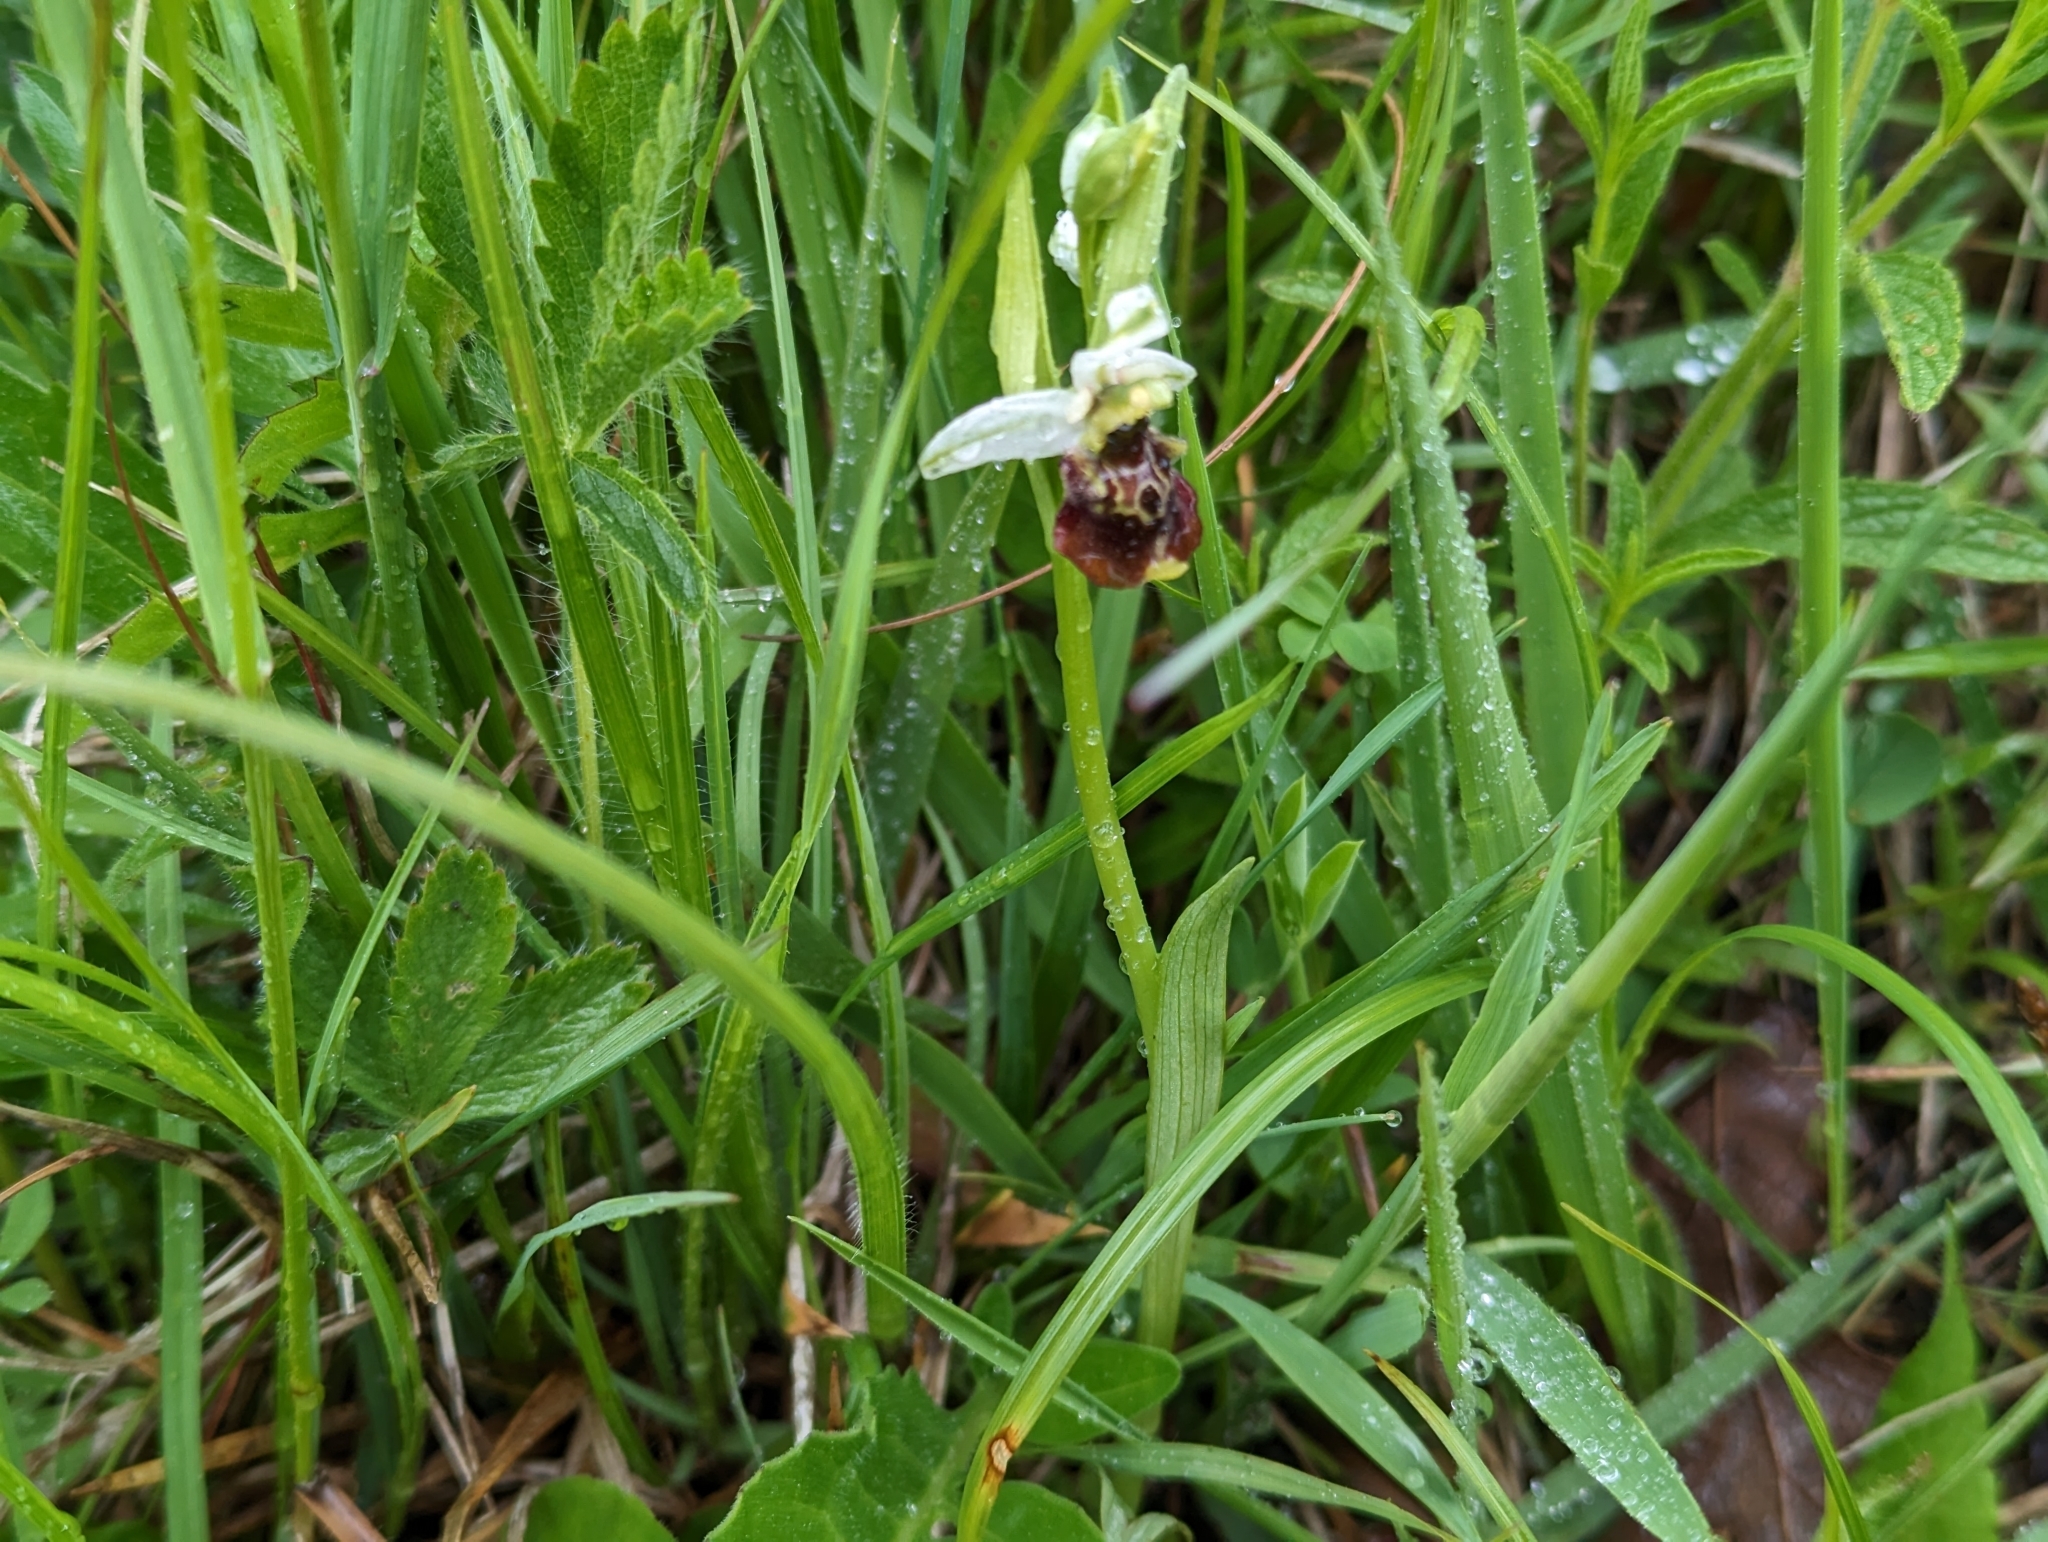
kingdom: Plantae
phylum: Tracheophyta
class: Liliopsida
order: Asparagales
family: Orchidaceae
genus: Ophrys
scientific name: Ophrys holosericea
